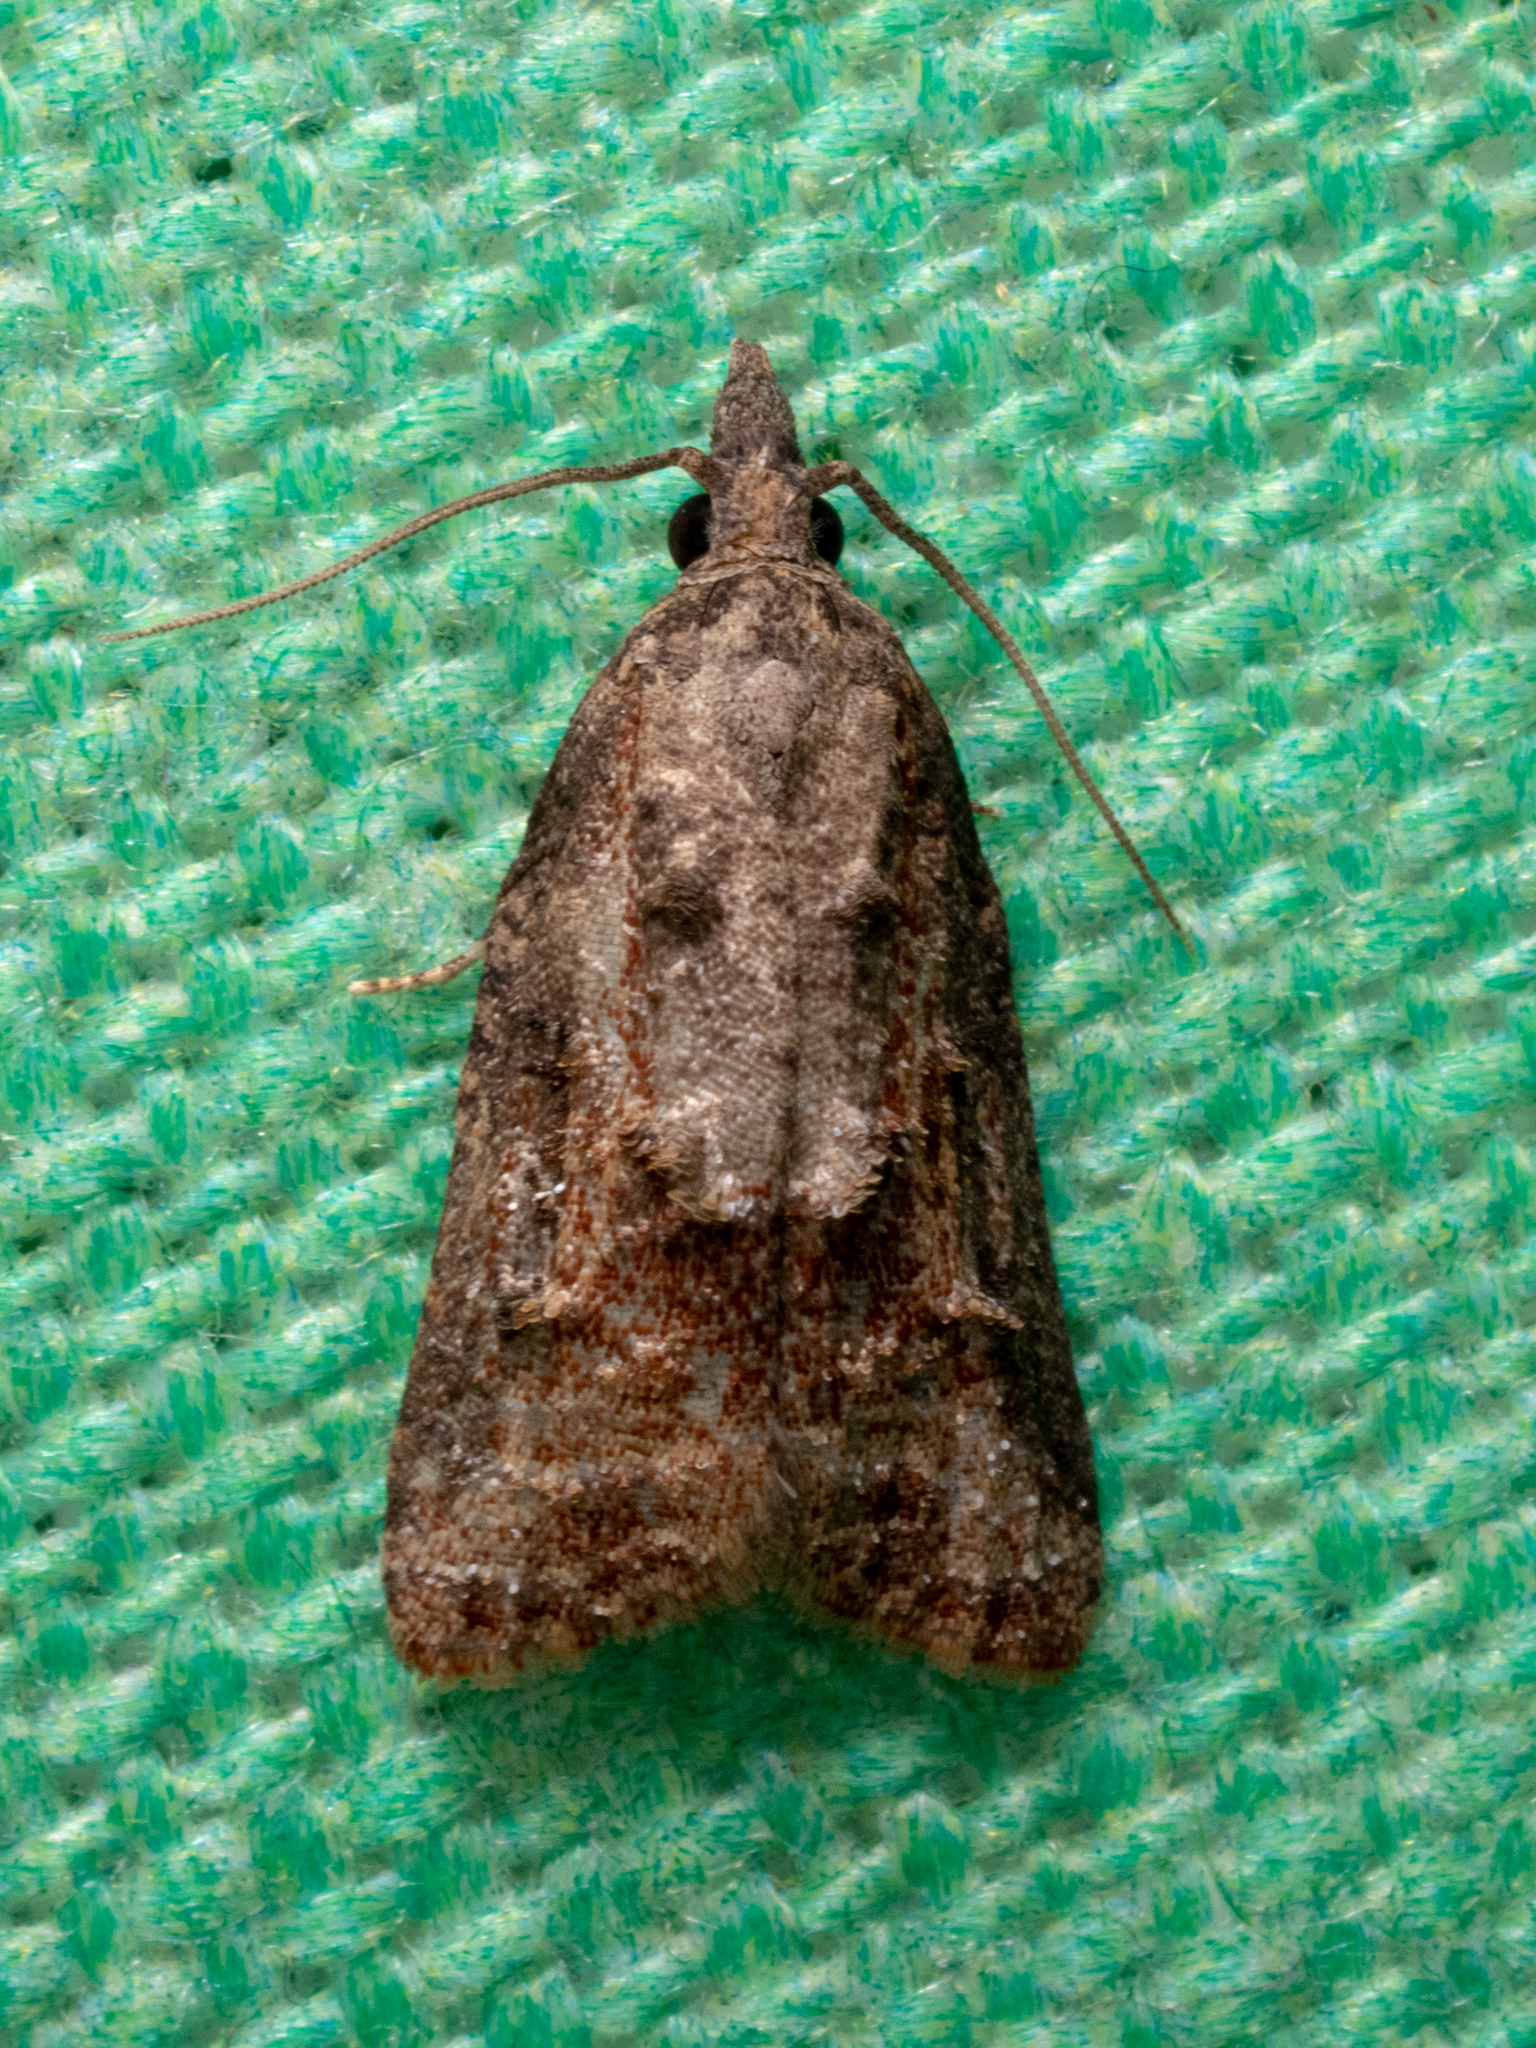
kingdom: Animalia
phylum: Arthropoda
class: Insecta
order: Lepidoptera
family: Tortricidae
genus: Platynota
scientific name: Platynota idaeusalis
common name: Tufted apple bud moth
